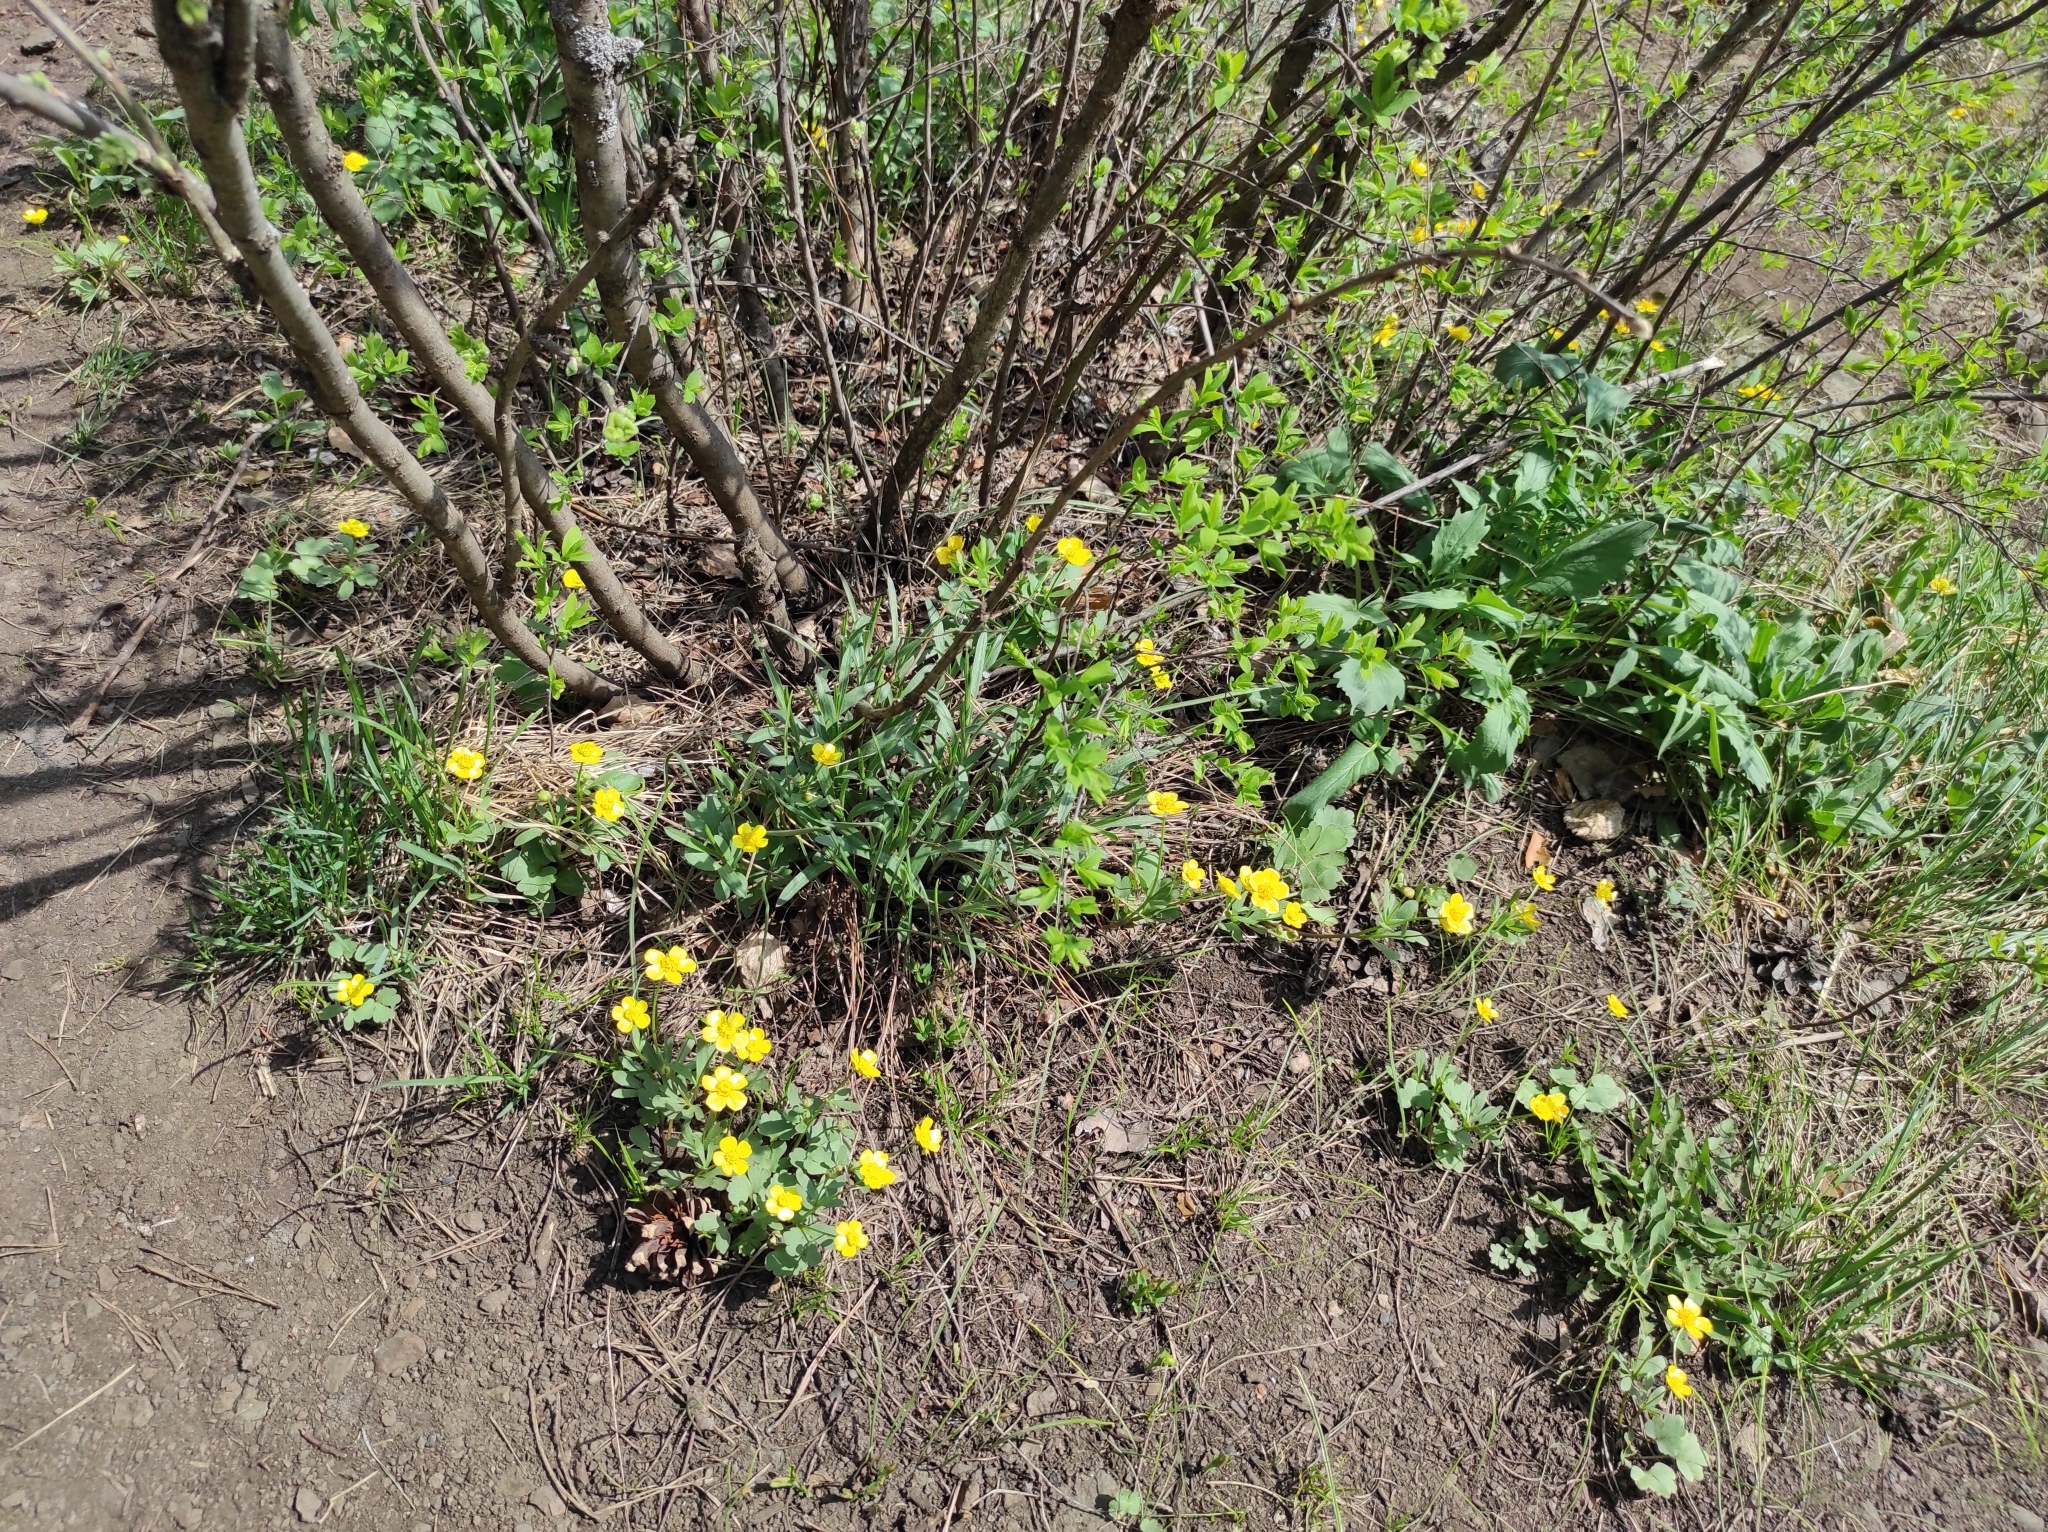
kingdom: Plantae
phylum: Tracheophyta
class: Magnoliopsida
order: Ranunculales
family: Ranunculaceae
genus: Ranunculus
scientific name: Ranunculus polyrhizos
